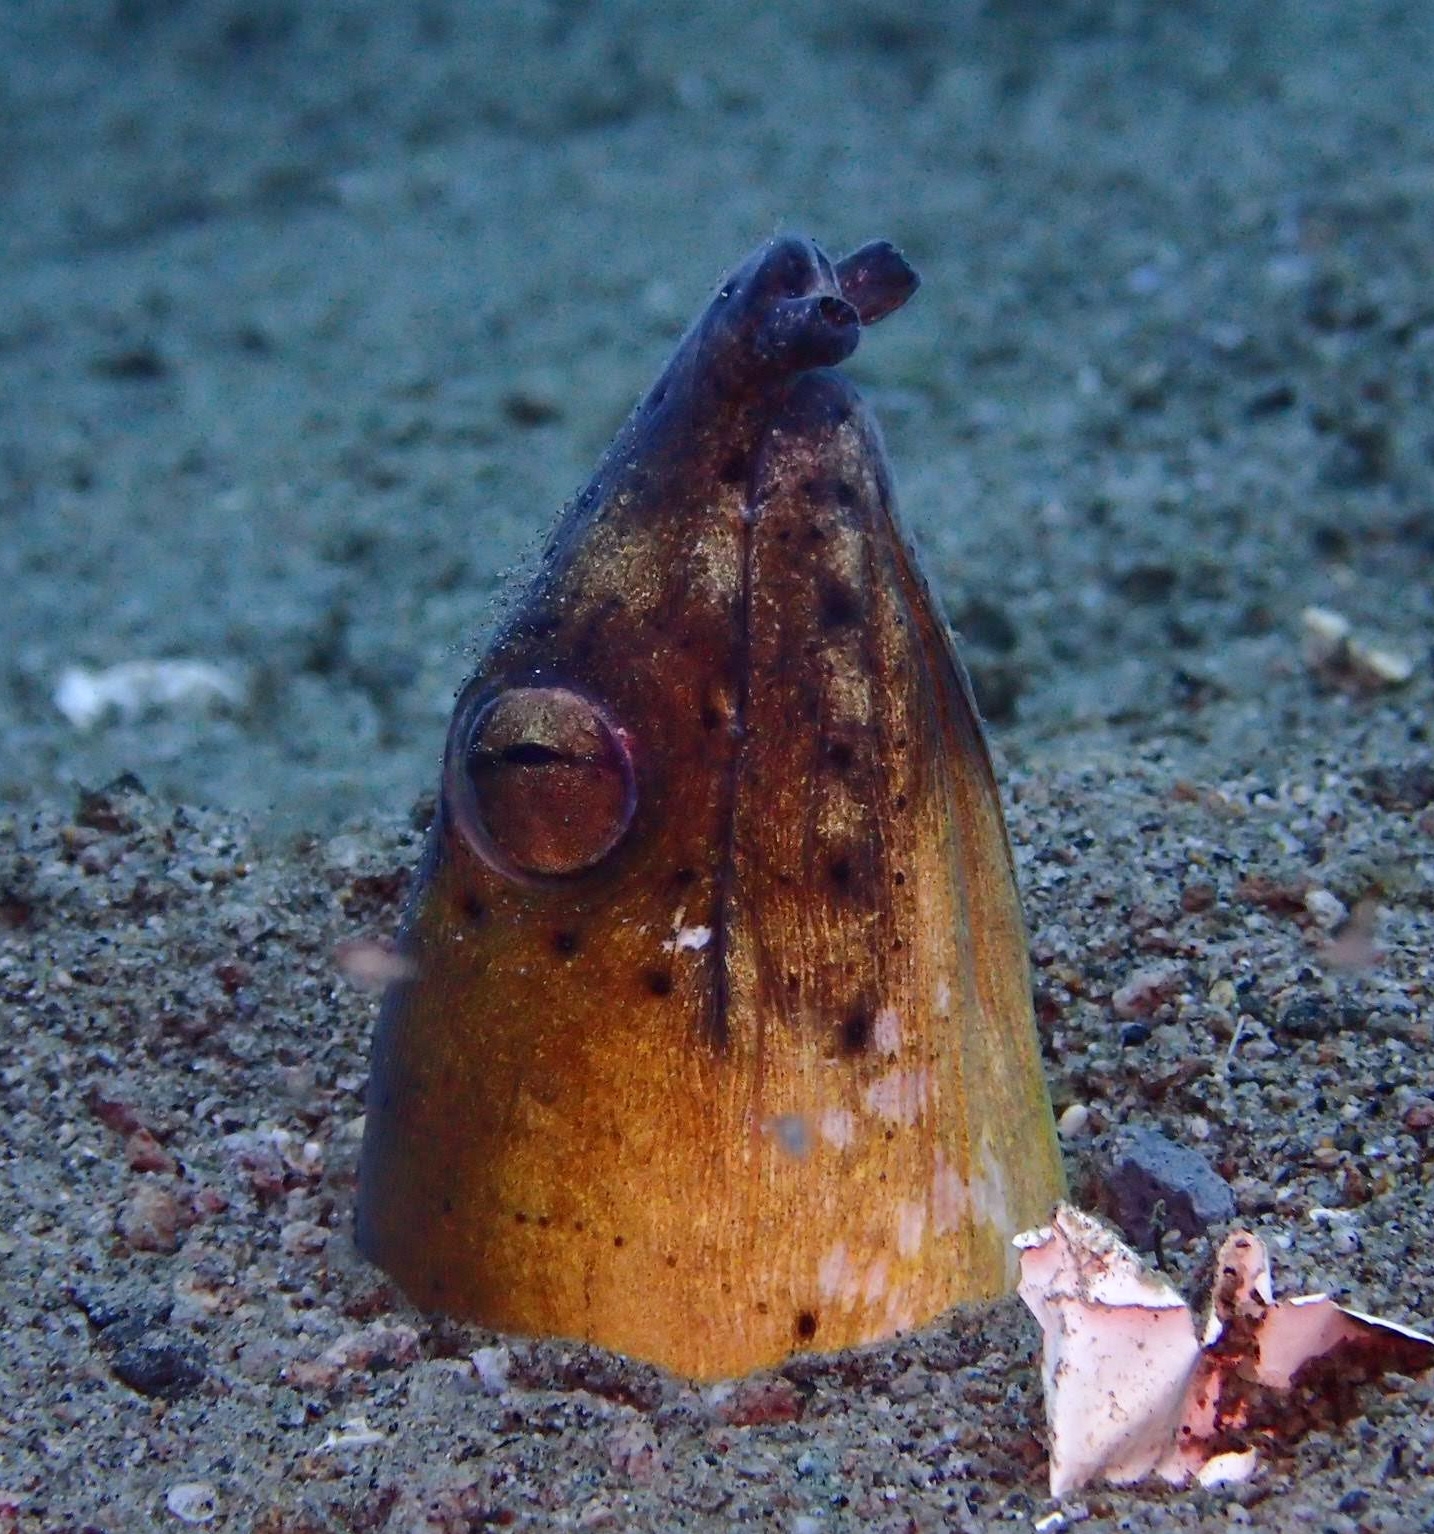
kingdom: Animalia
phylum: Chordata
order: Anguilliformes
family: Ophichthidae
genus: Ophichthus
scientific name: Ophichthus altipennis
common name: Highfin snake eel
